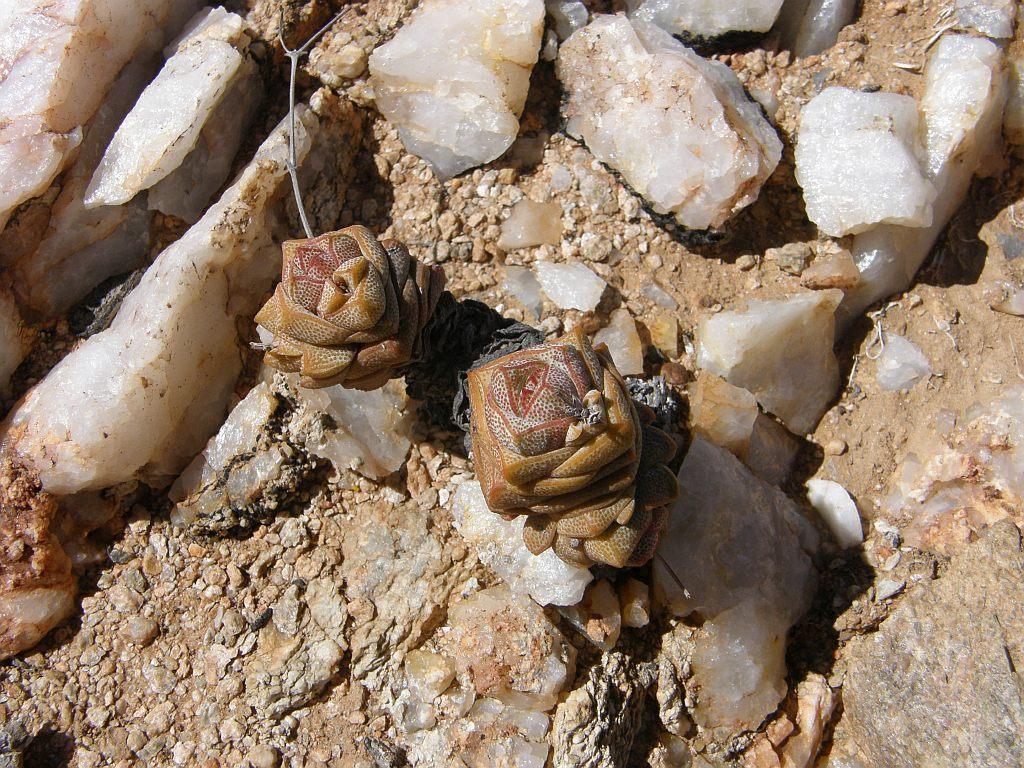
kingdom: Plantae
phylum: Tracheophyta
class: Magnoliopsida
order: Saxifragales
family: Crassulaceae
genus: Crassula
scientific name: Crassula deceptor
